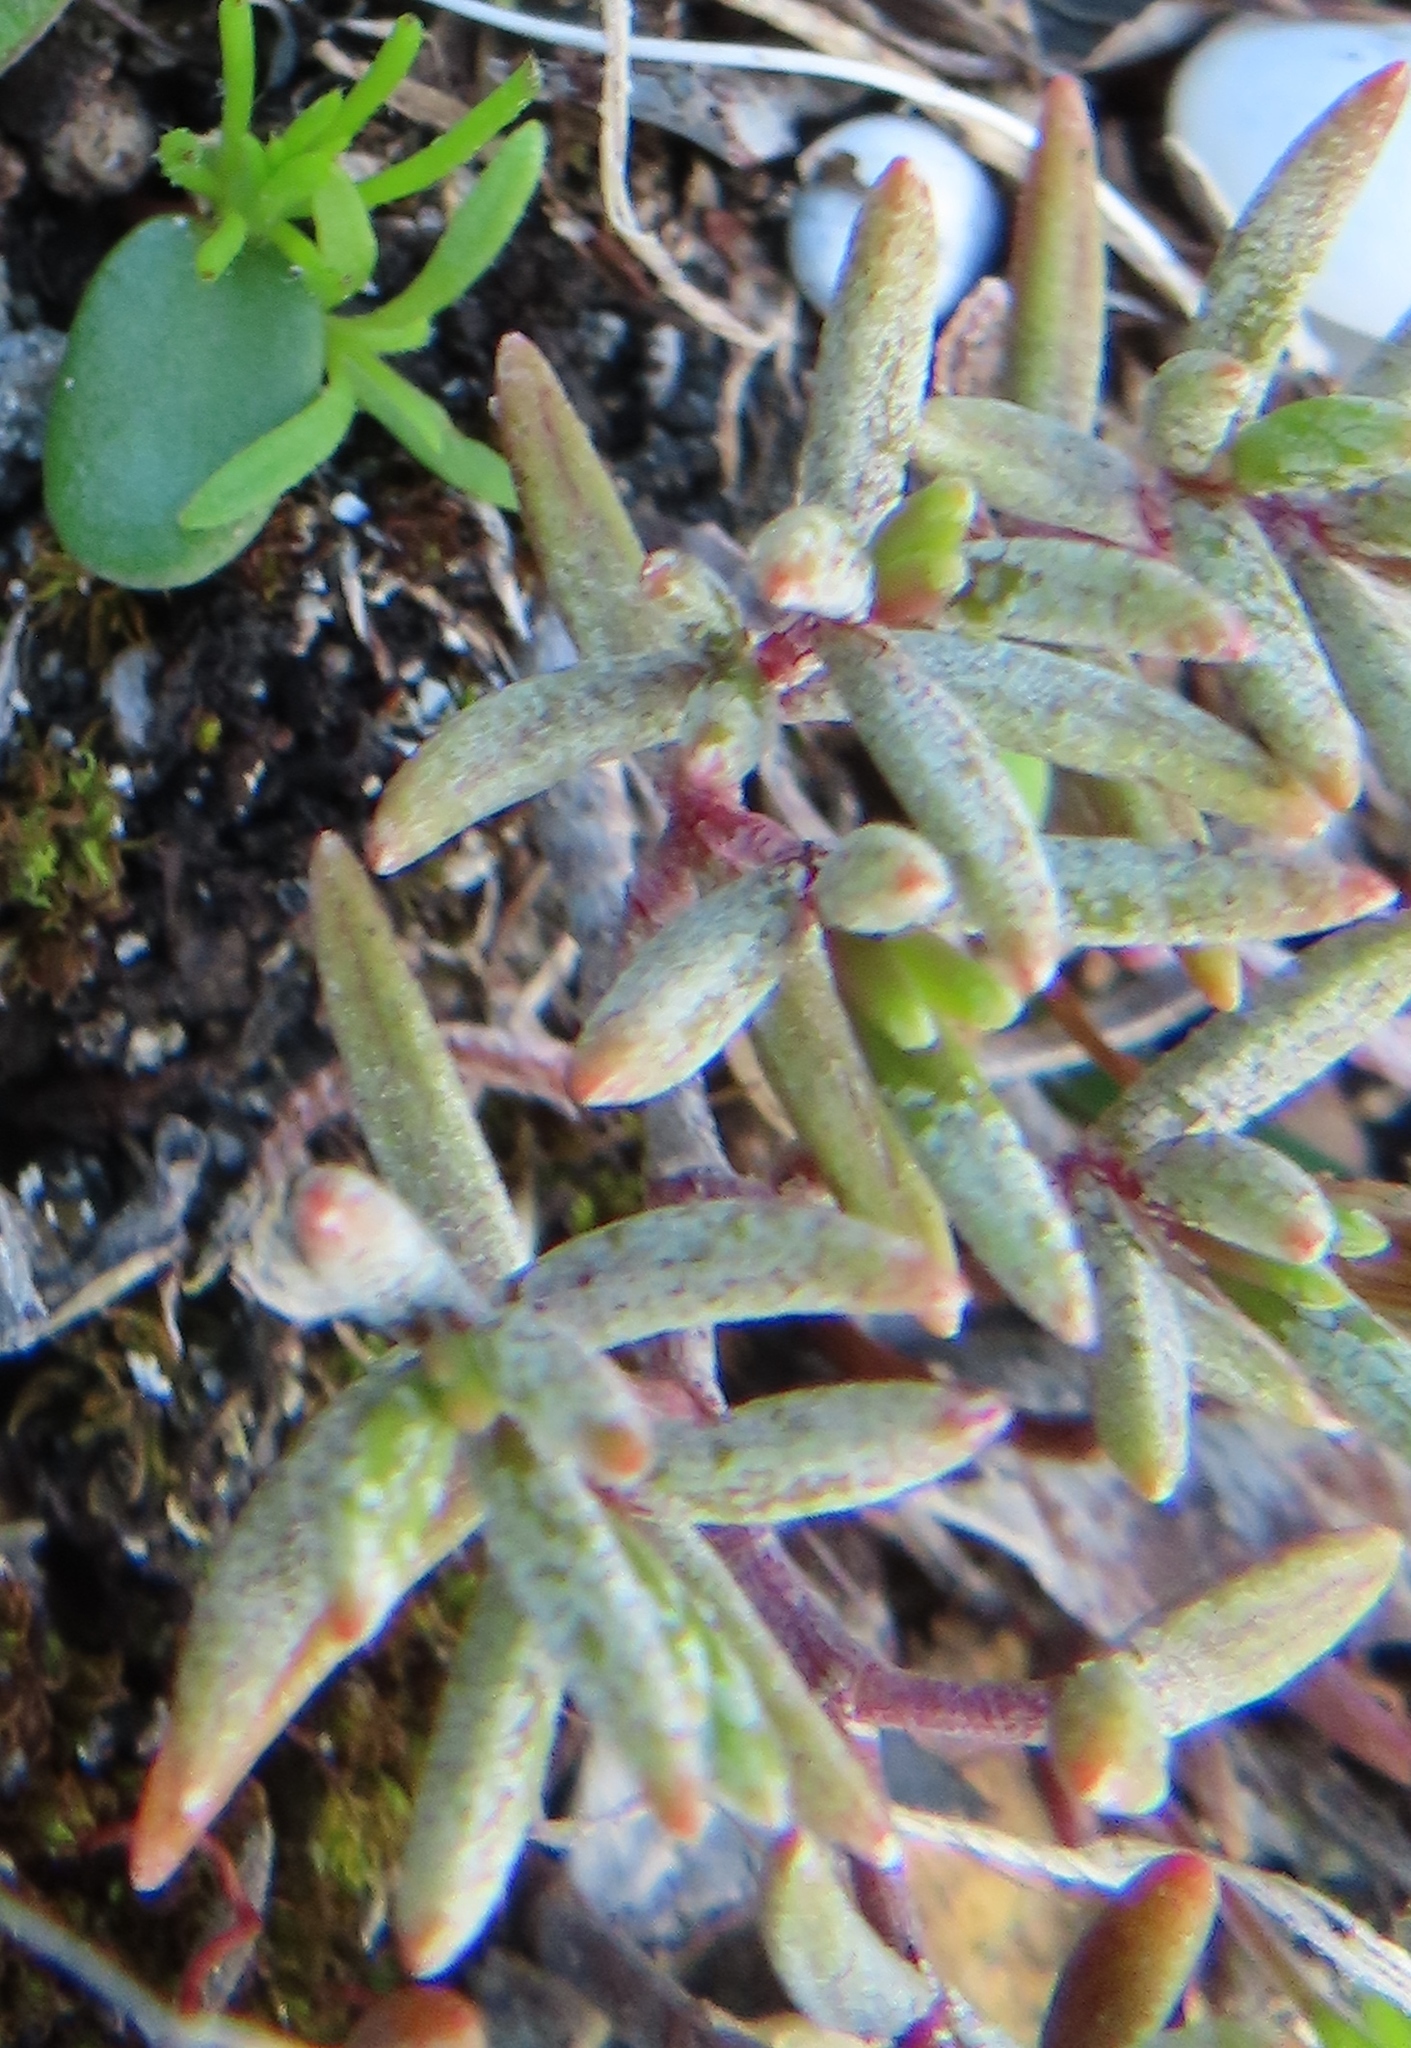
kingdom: Plantae
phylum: Tracheophyta
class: Magnoliopsida
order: Saxifragales
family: Crassulaceae
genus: Crassula
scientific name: Crassula expansa
